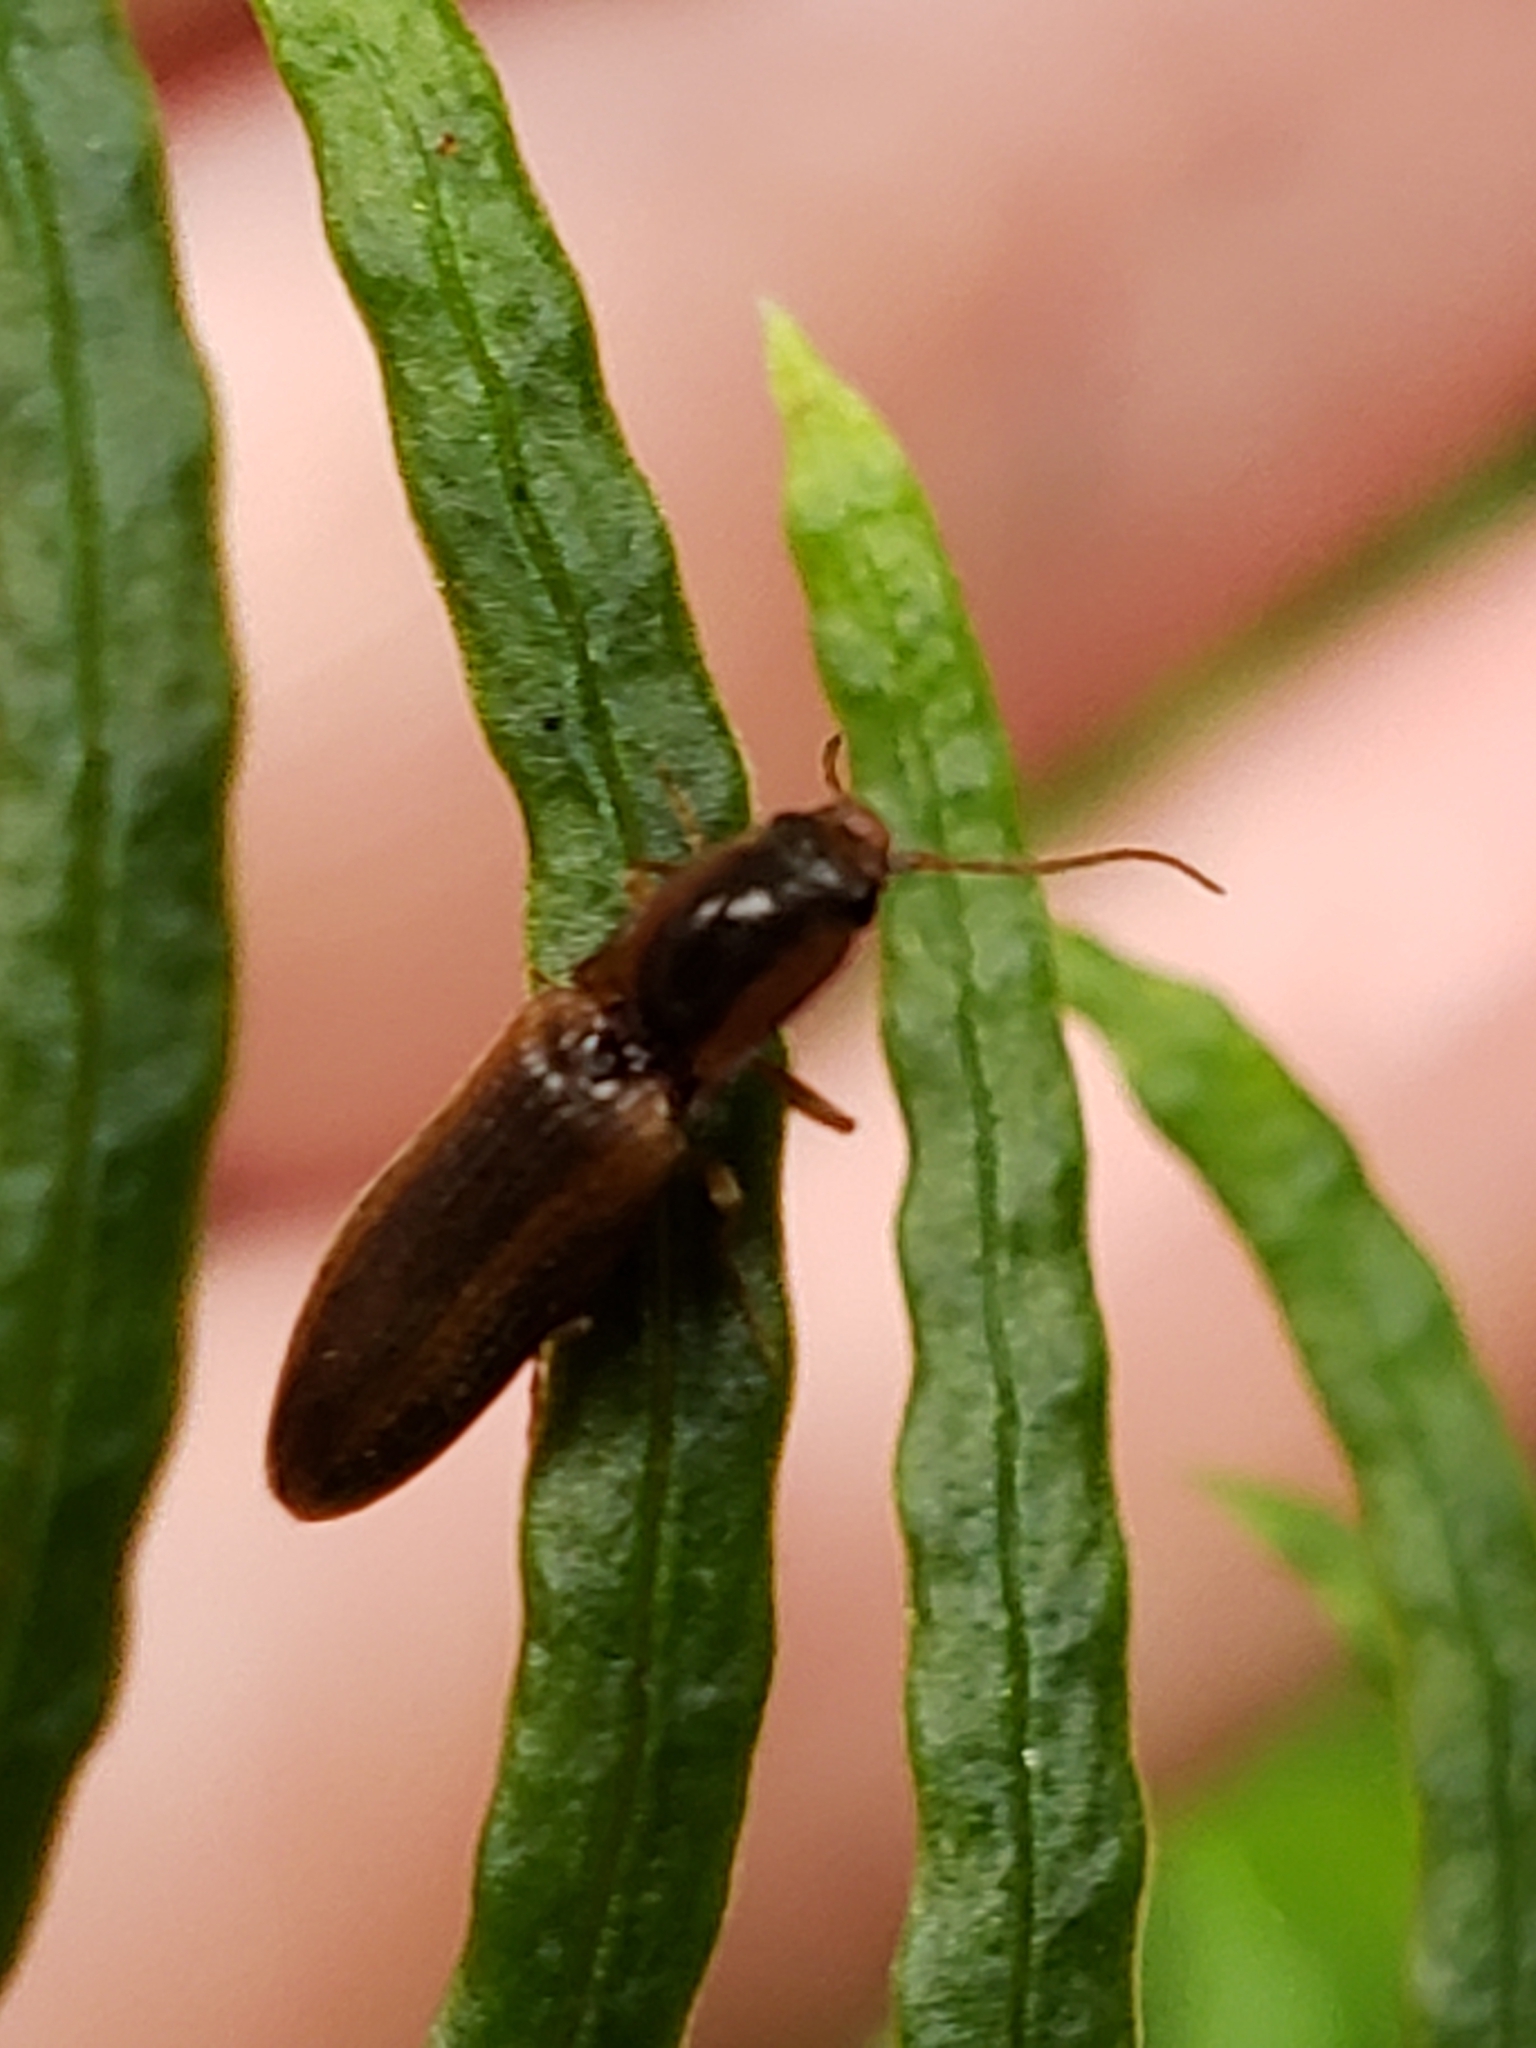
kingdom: Animalia
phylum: Arthropoda
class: Insecta
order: Coleoptera
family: Elateridae
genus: Athous
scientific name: Athous vittiger
